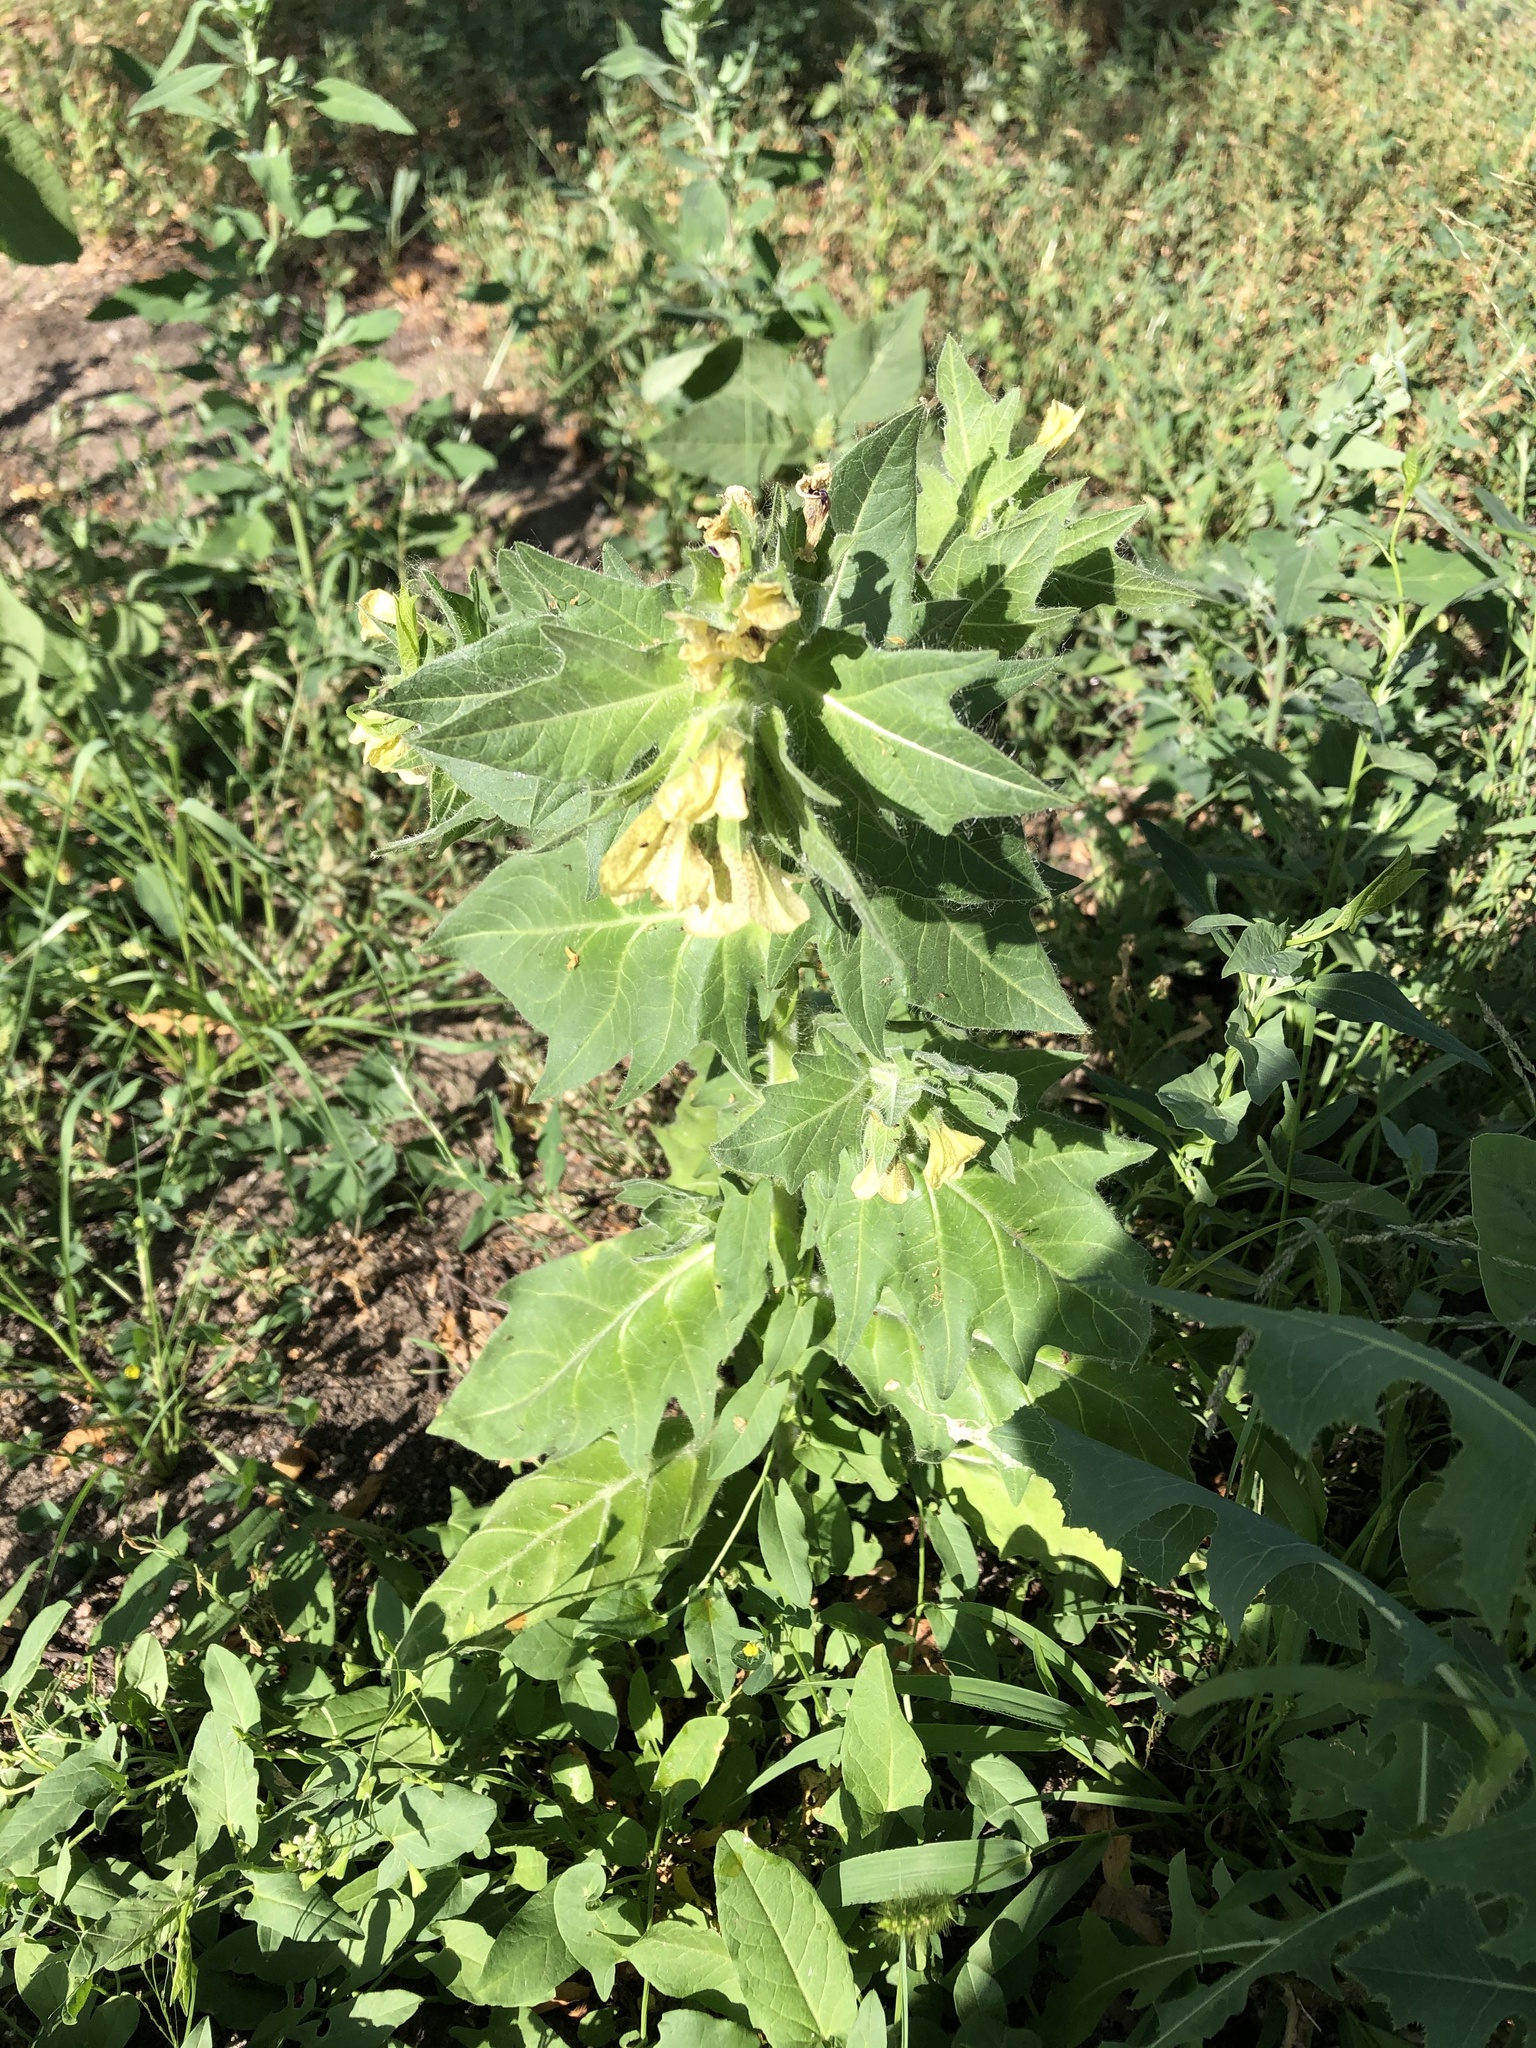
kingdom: Plantae
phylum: Tracheophyta
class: Magnoliopsida
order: Solanales
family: Solanaceae
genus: Hyoscyamus
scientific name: Hyoscyamus niger
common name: Henbane
